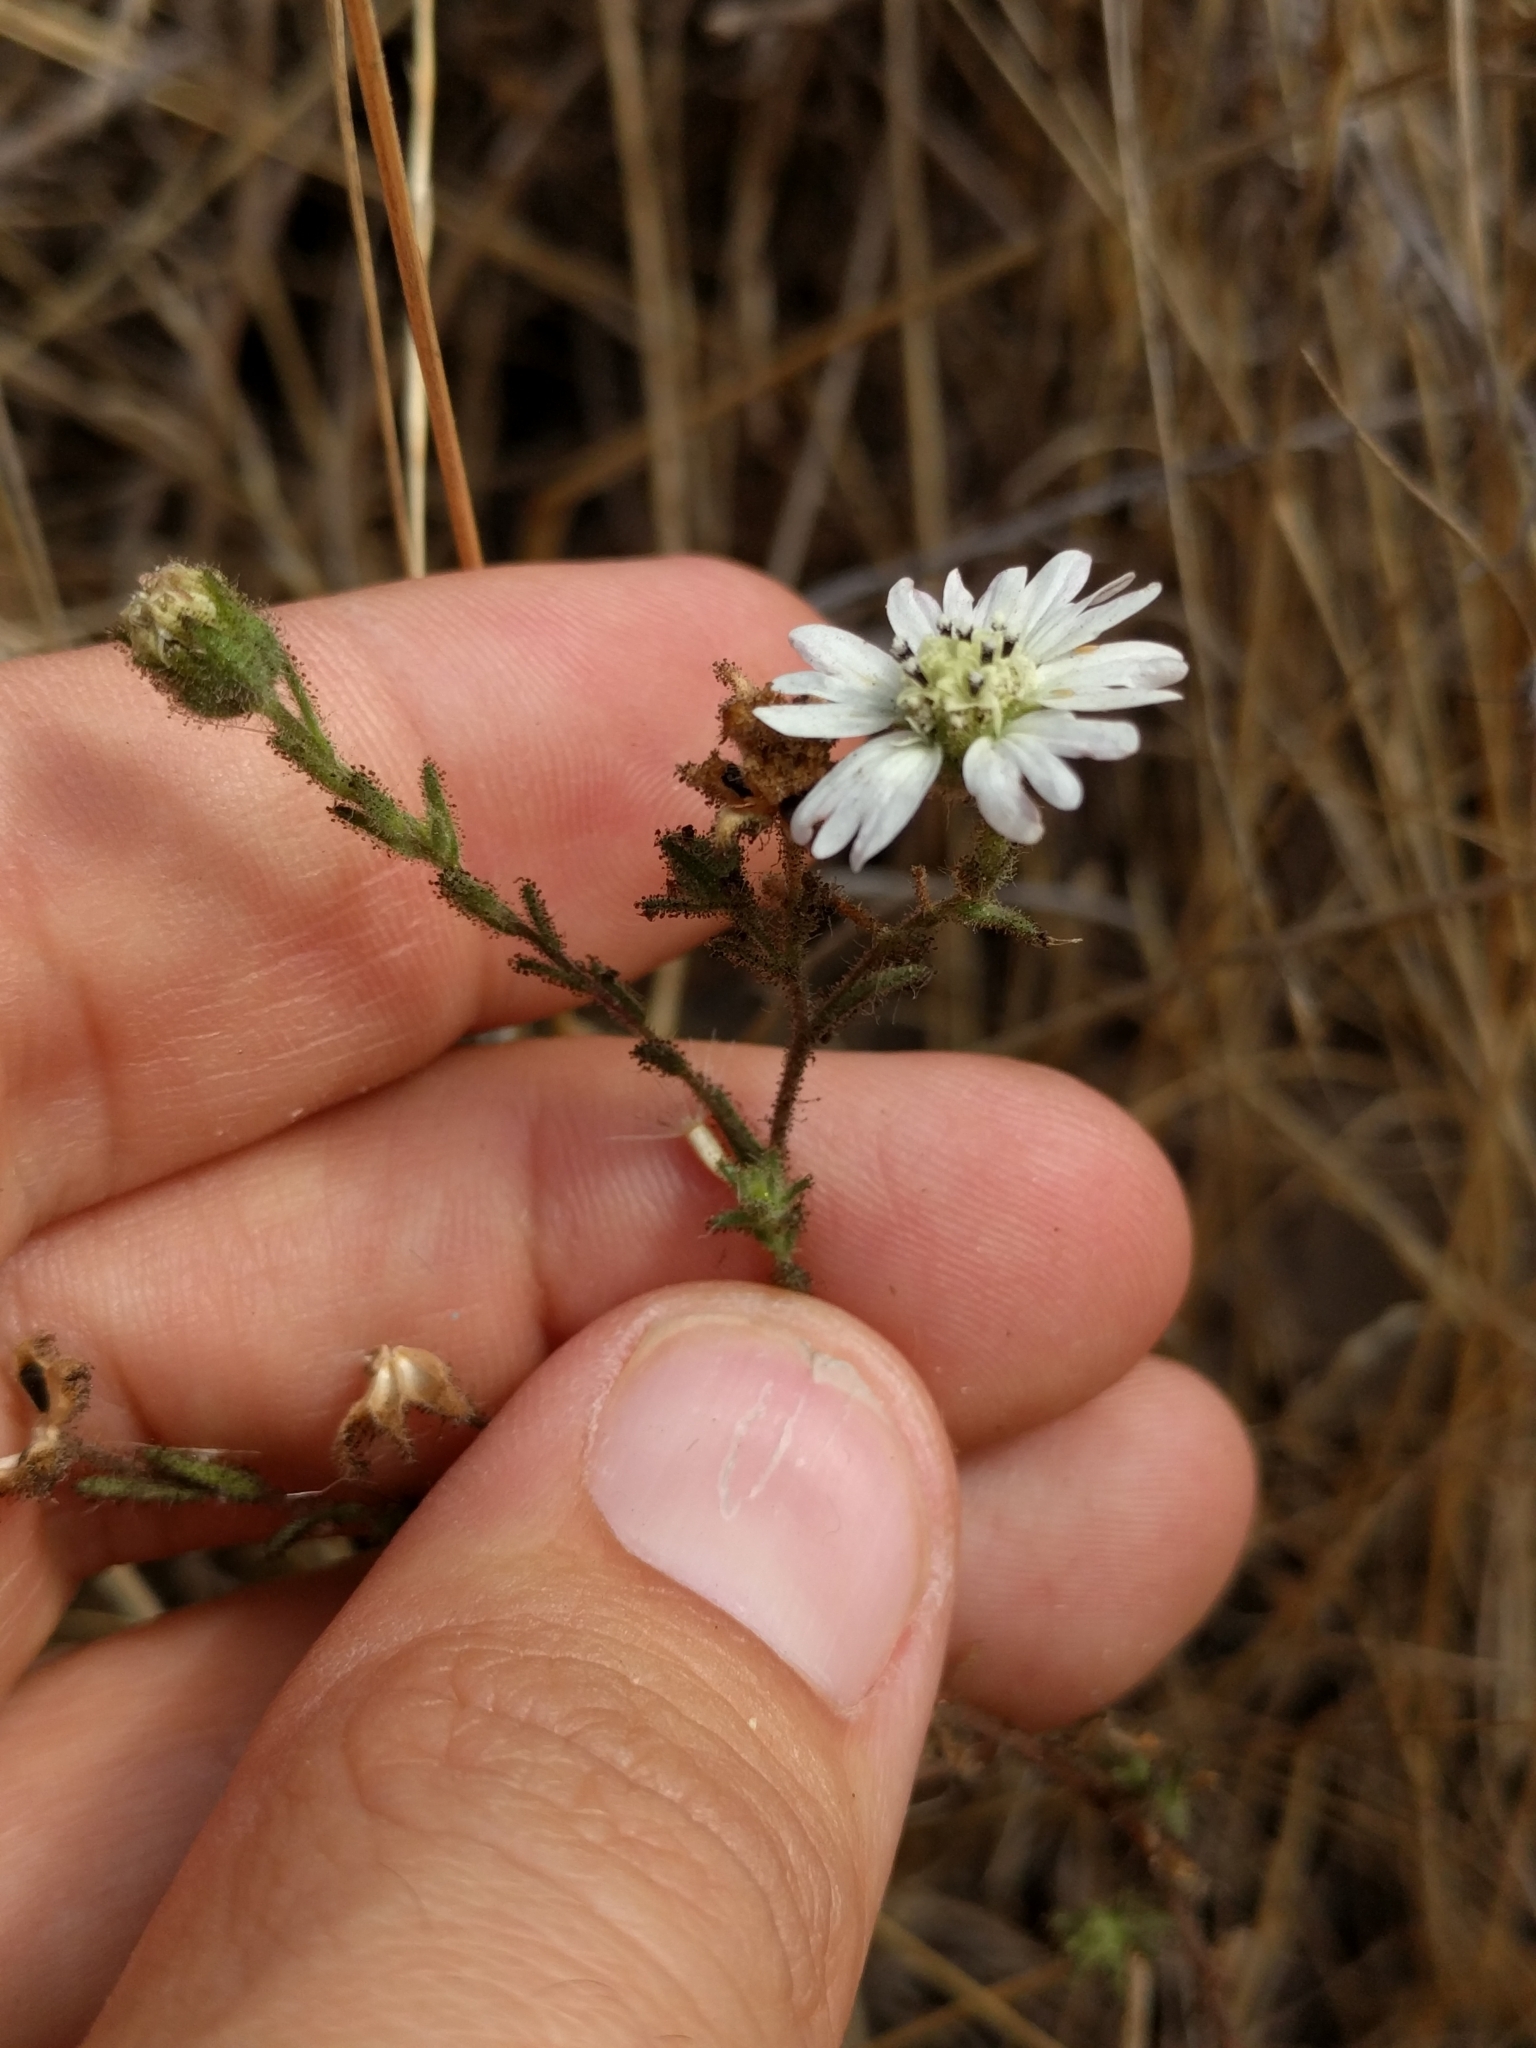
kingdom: Plantae
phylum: Tracheophyta
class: Magnoliopsida
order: Asterales
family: Asteraceae
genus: Hemizonia
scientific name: Hemizonia congesta
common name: Hayfield tarweed
